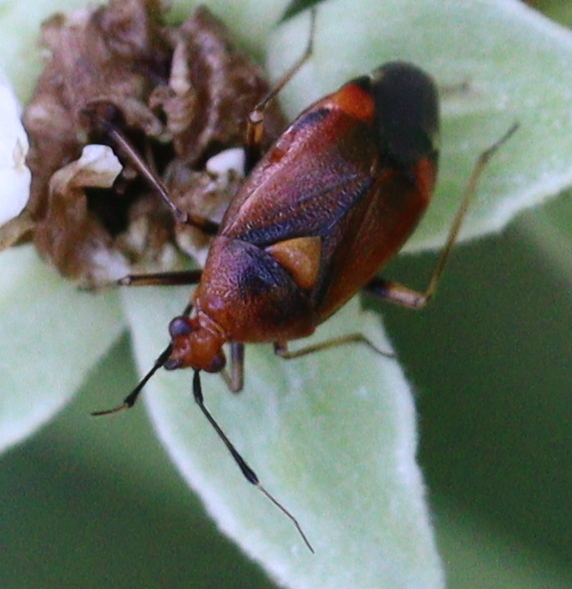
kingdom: Animalia
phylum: Arthropoda
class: Insecta
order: Hemiptera
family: Miridae
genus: Deraeocoris
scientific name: Deraeocoris ruber
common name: Plant bug
